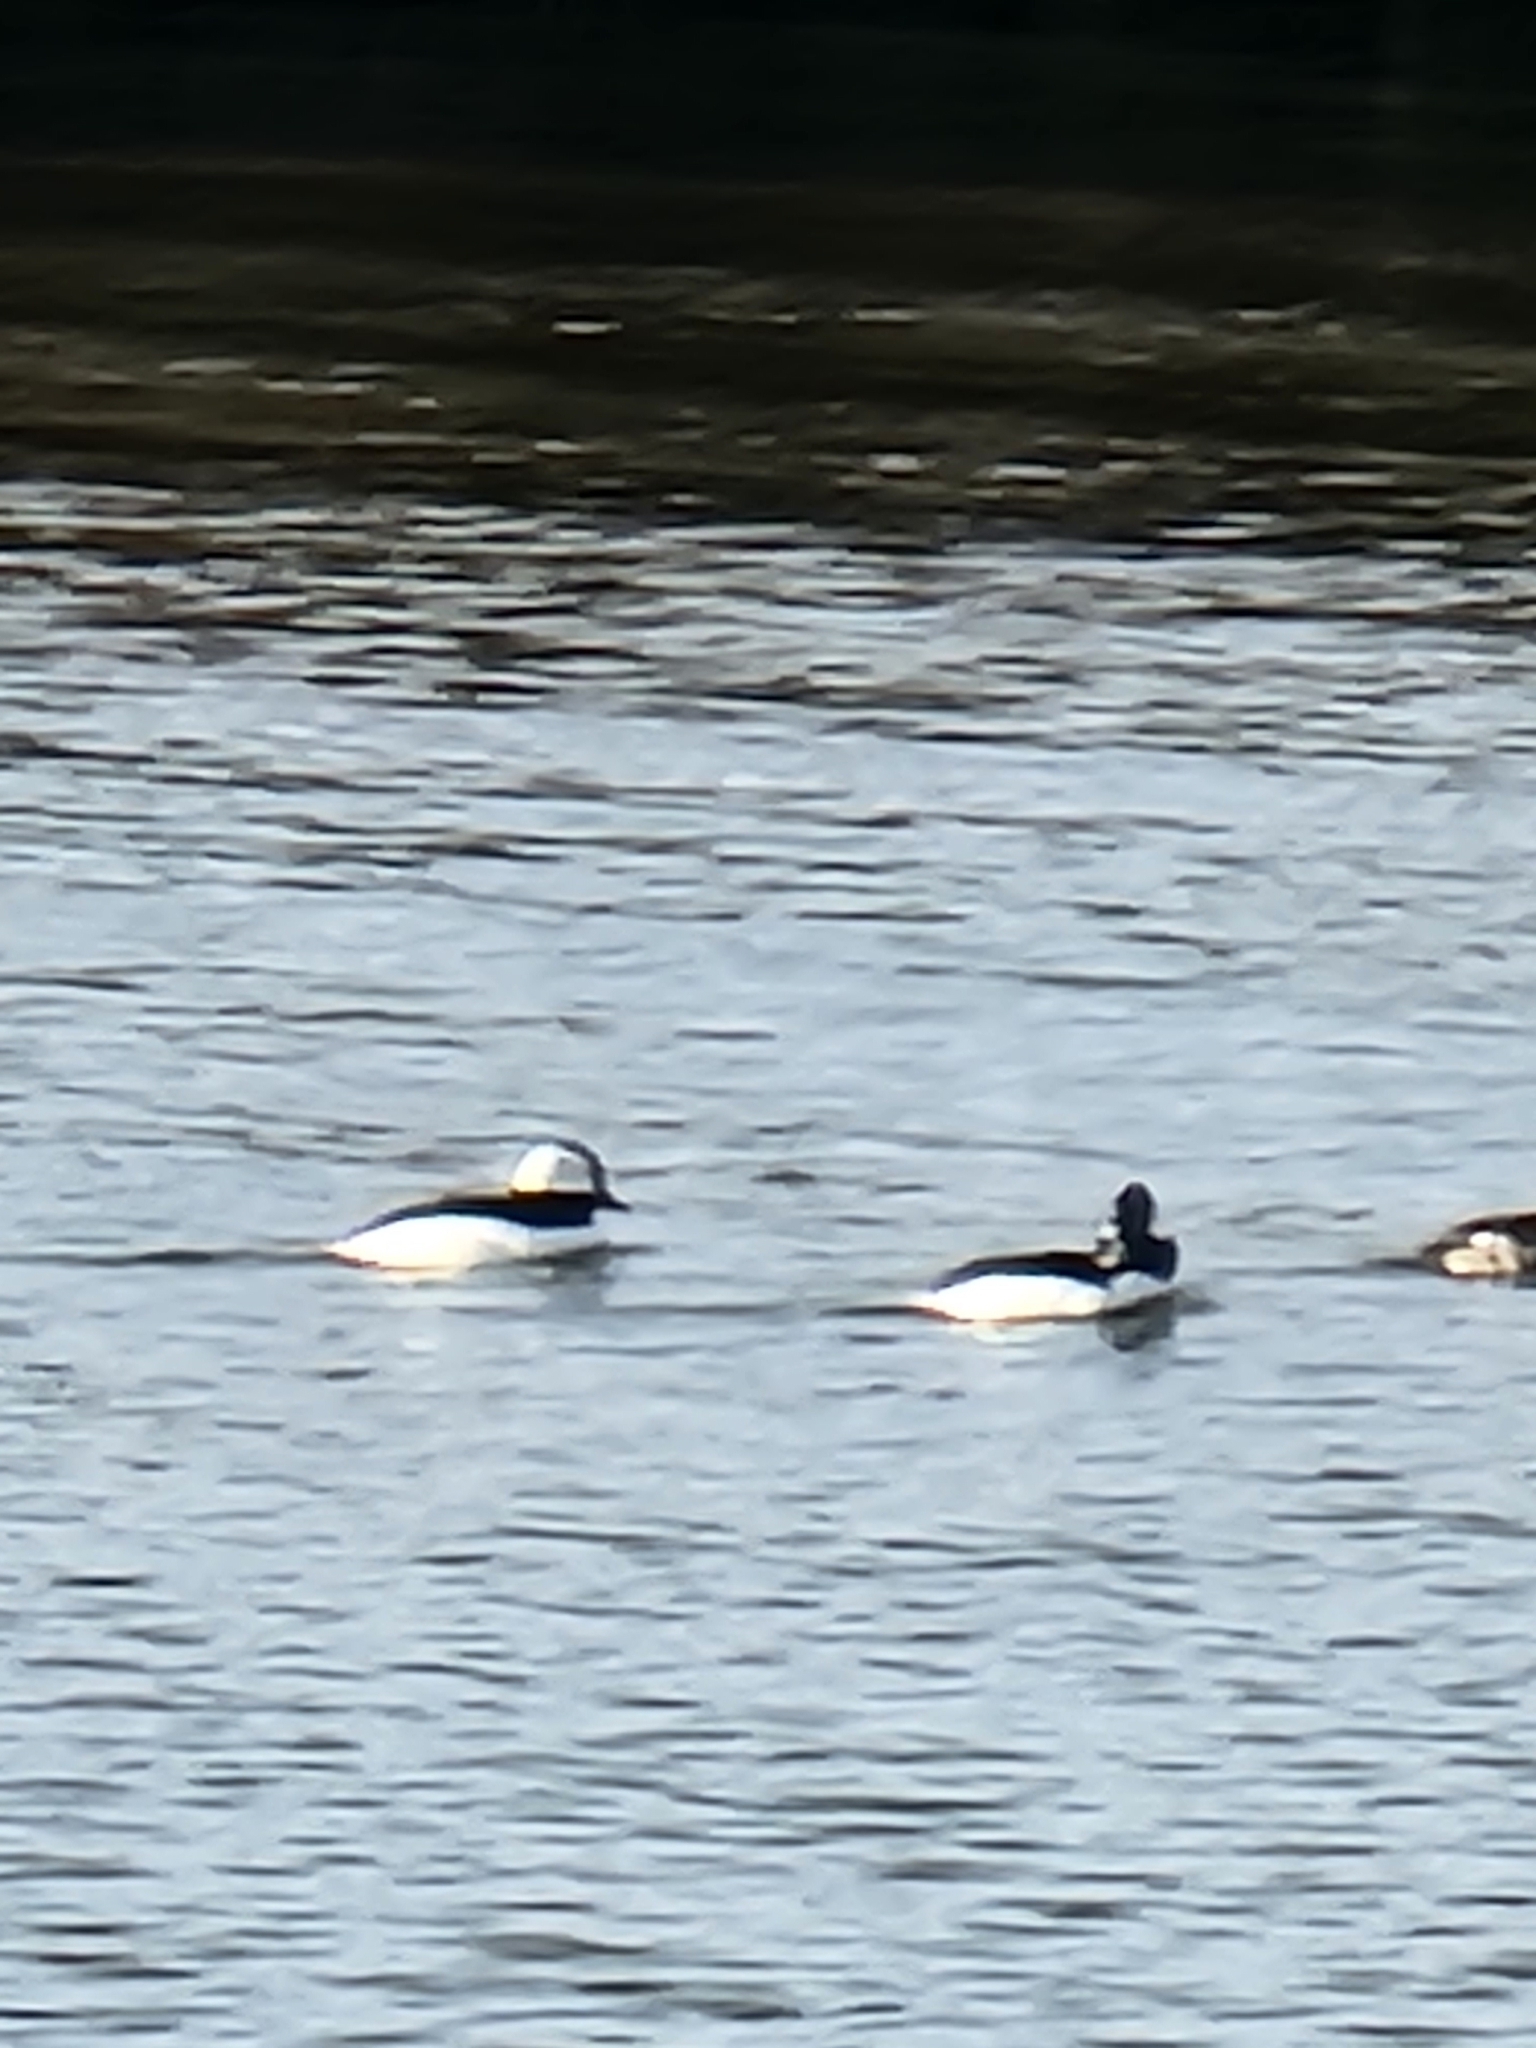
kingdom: Animalia
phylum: Chordata
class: Aves
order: Anseriformes
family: Anatidae
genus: Bucephala
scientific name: Bucephala albeola
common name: Bufflehead
